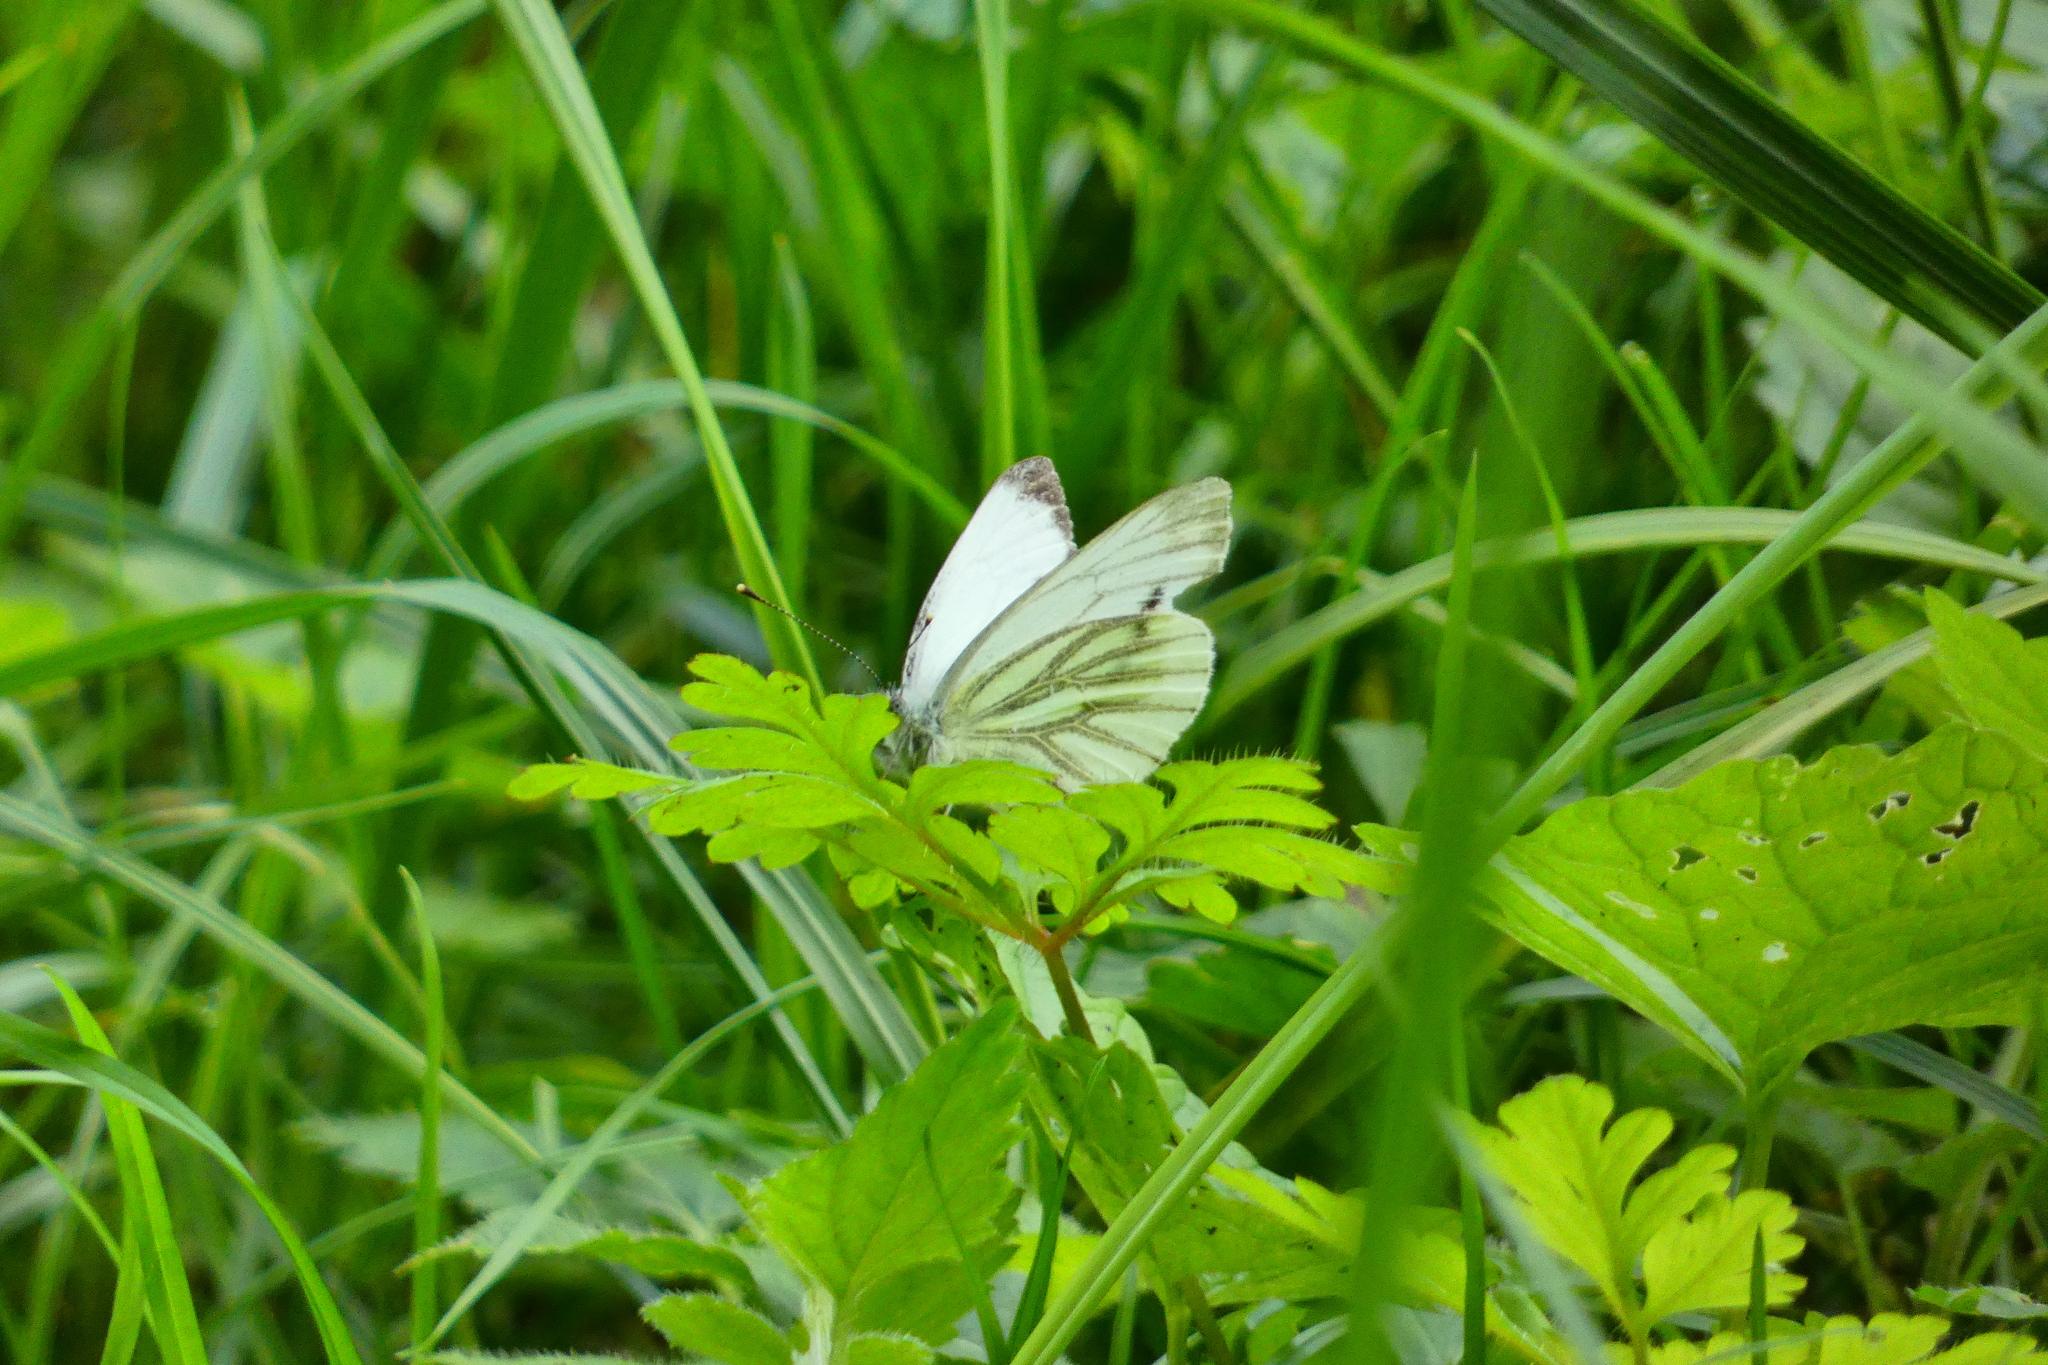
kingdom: Animalia
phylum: Arthropoda
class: Insecta
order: Lepidoptera
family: Pieridae
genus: Pieris
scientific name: Pieris napi
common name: Green-veined white
